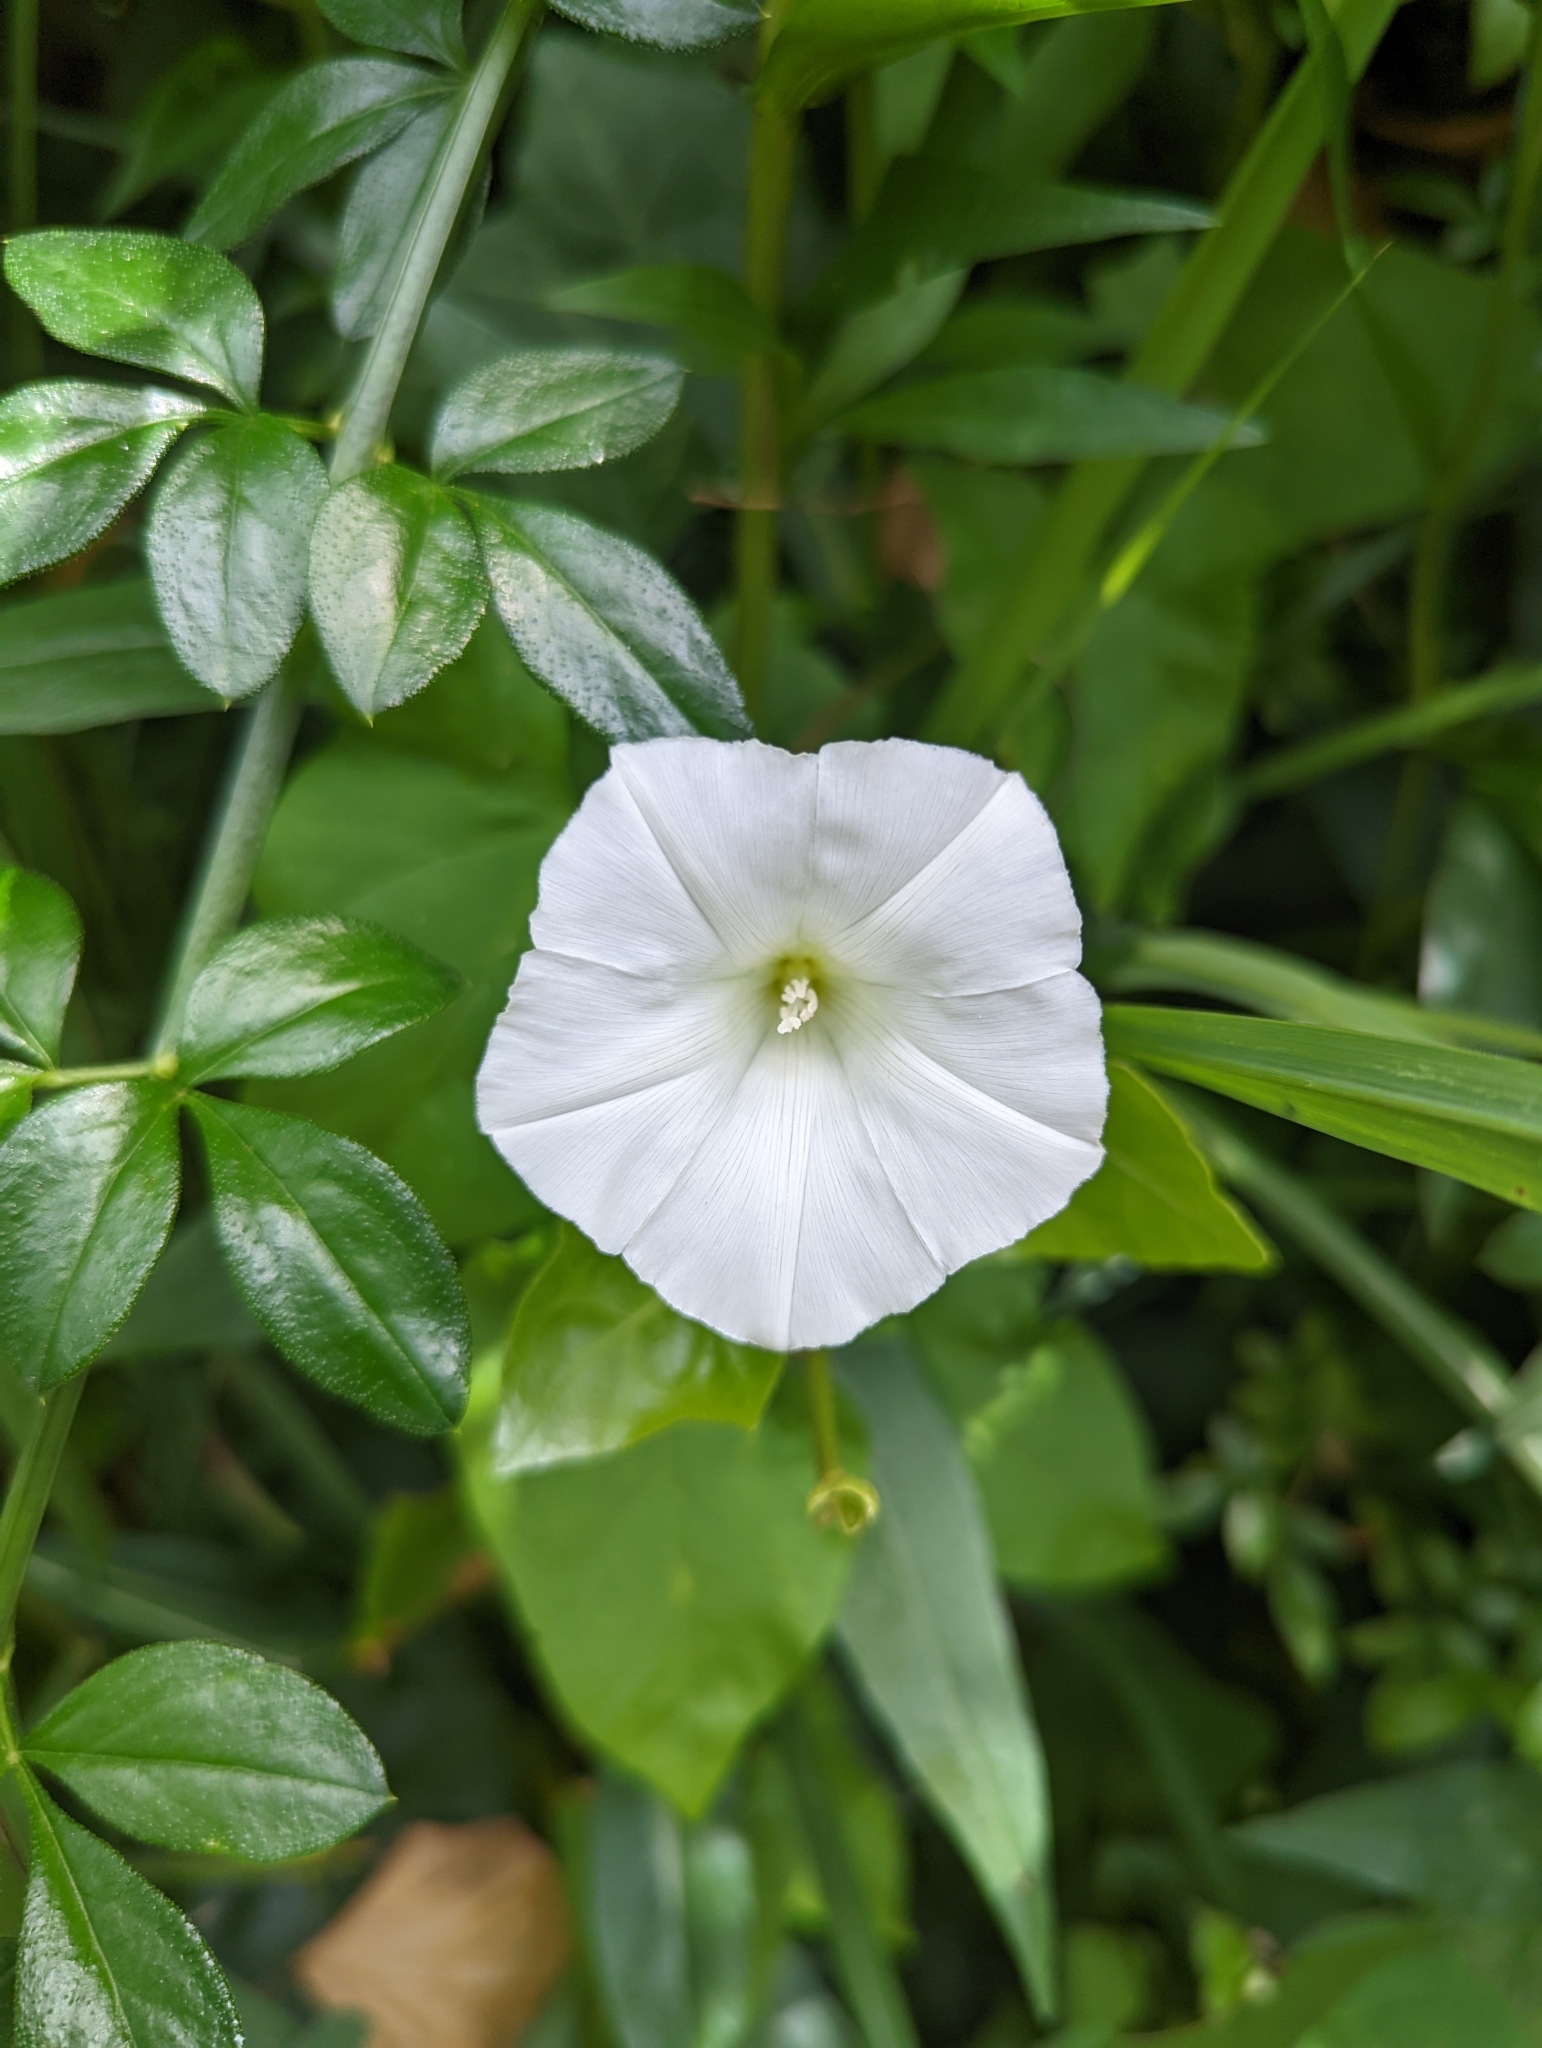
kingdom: Plantae
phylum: Tracheophyta
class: Magnoliopsida
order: Solanales
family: Convolvulaceae
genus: Calystegia
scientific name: Calystegia sepium
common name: Hedge bindweed
